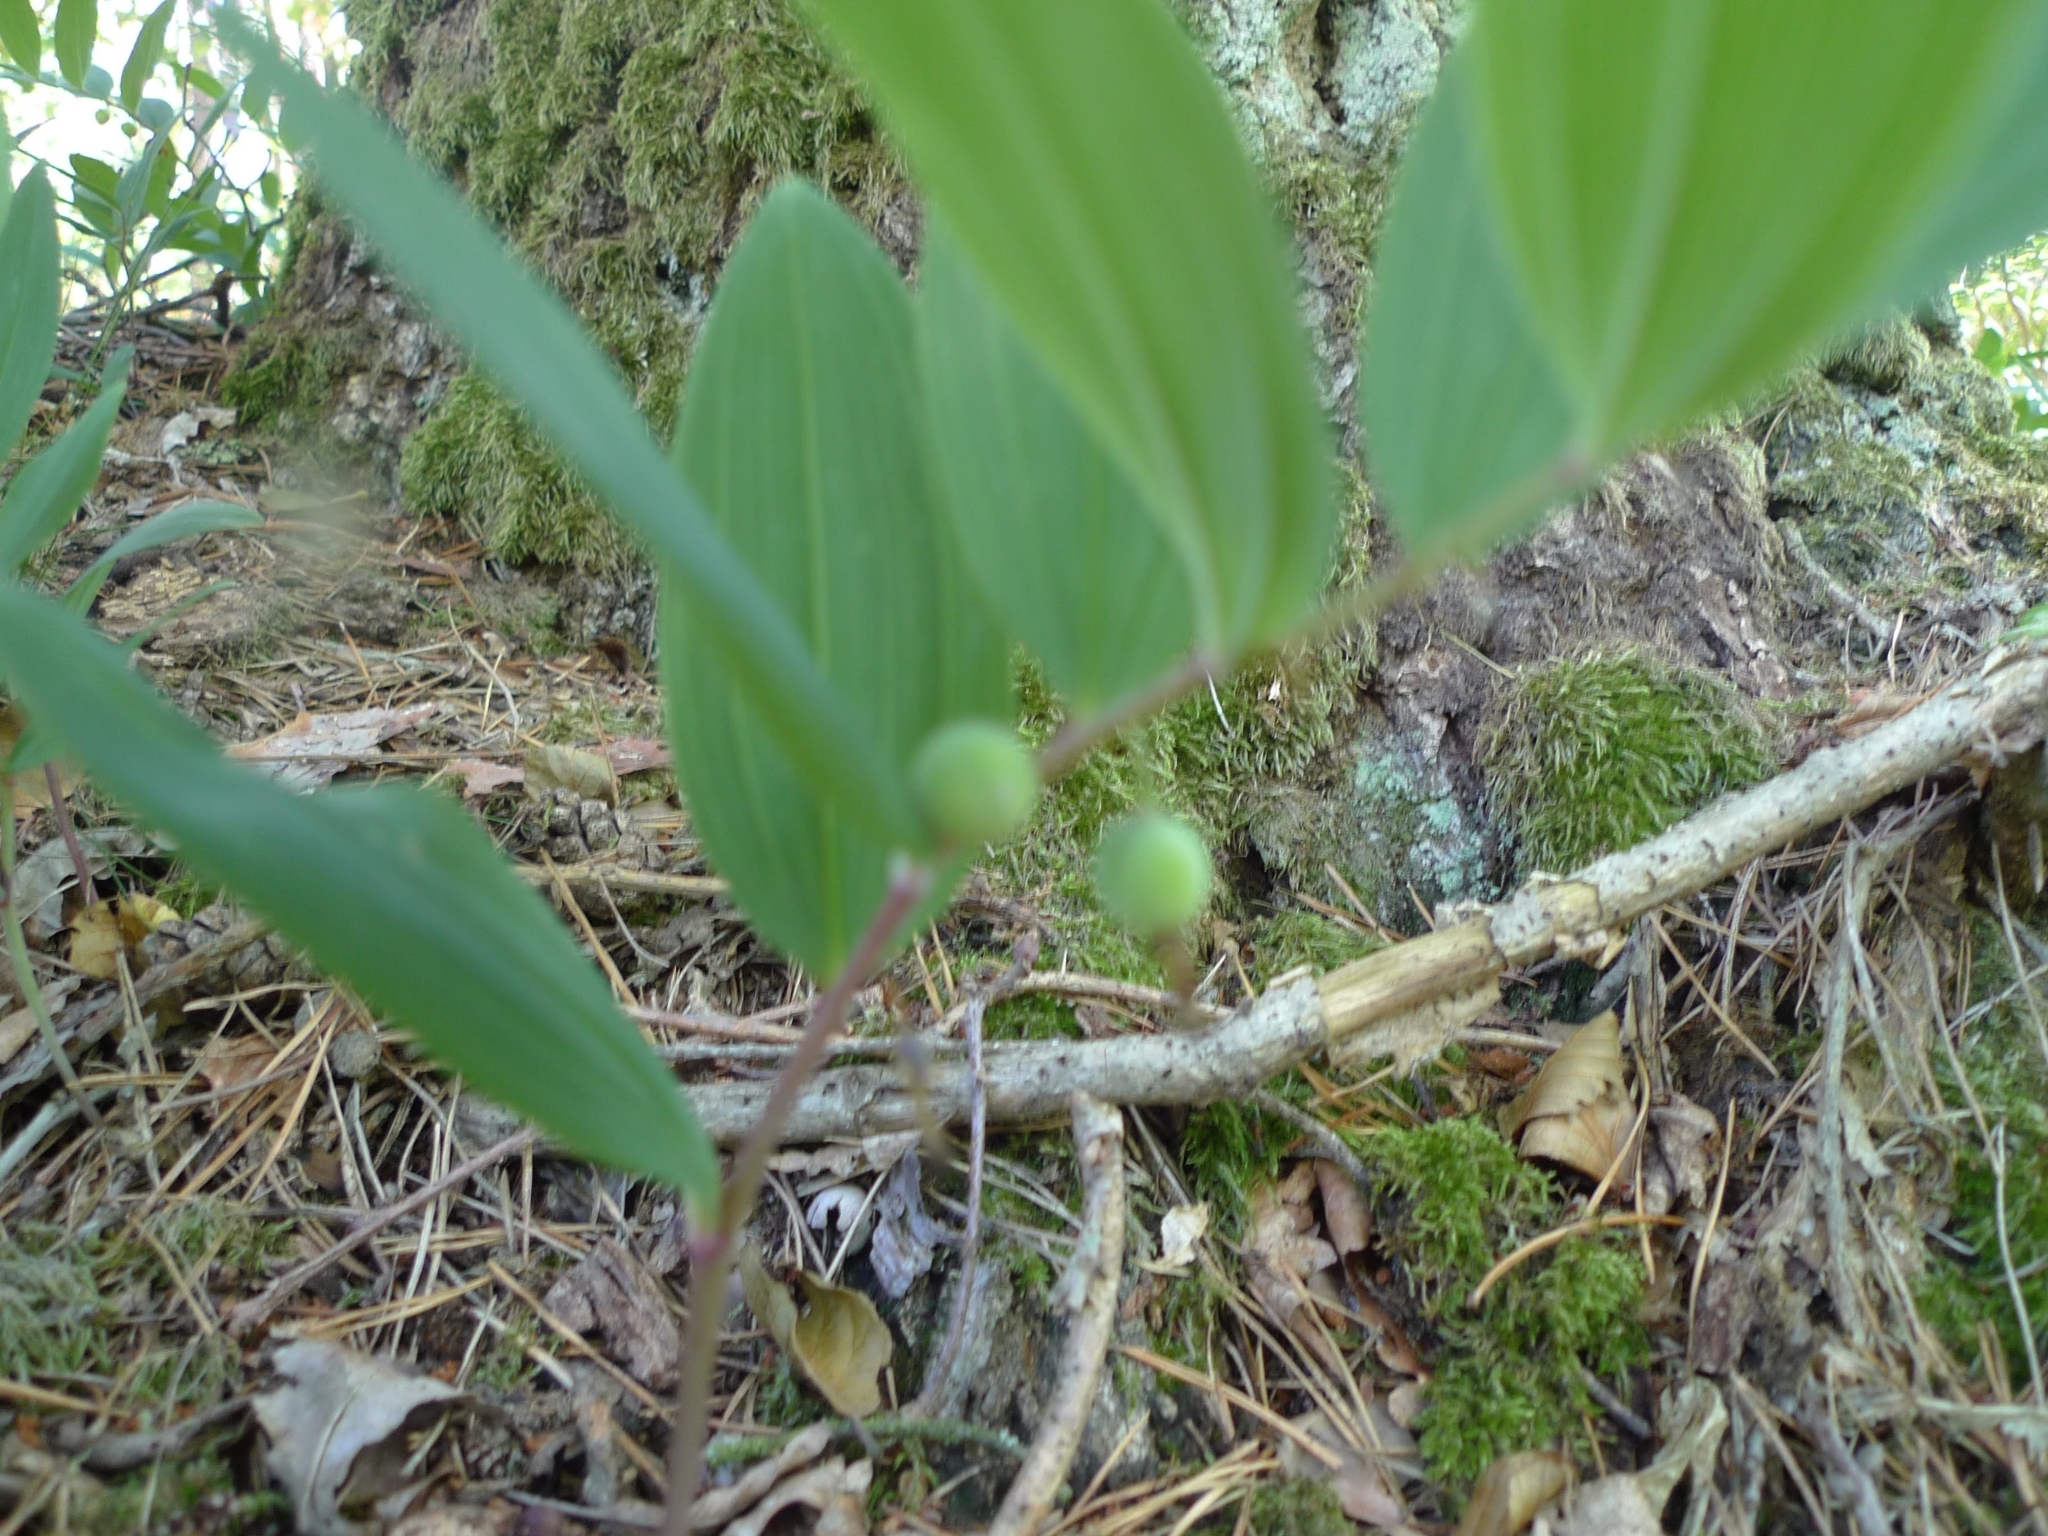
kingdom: Plantae
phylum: Tracheophyta
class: Liliopsida
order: Asparagales
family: Asparagaceae
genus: Polygonatum
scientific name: Polygonatum odoratum
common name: Angular solomon's-seal
